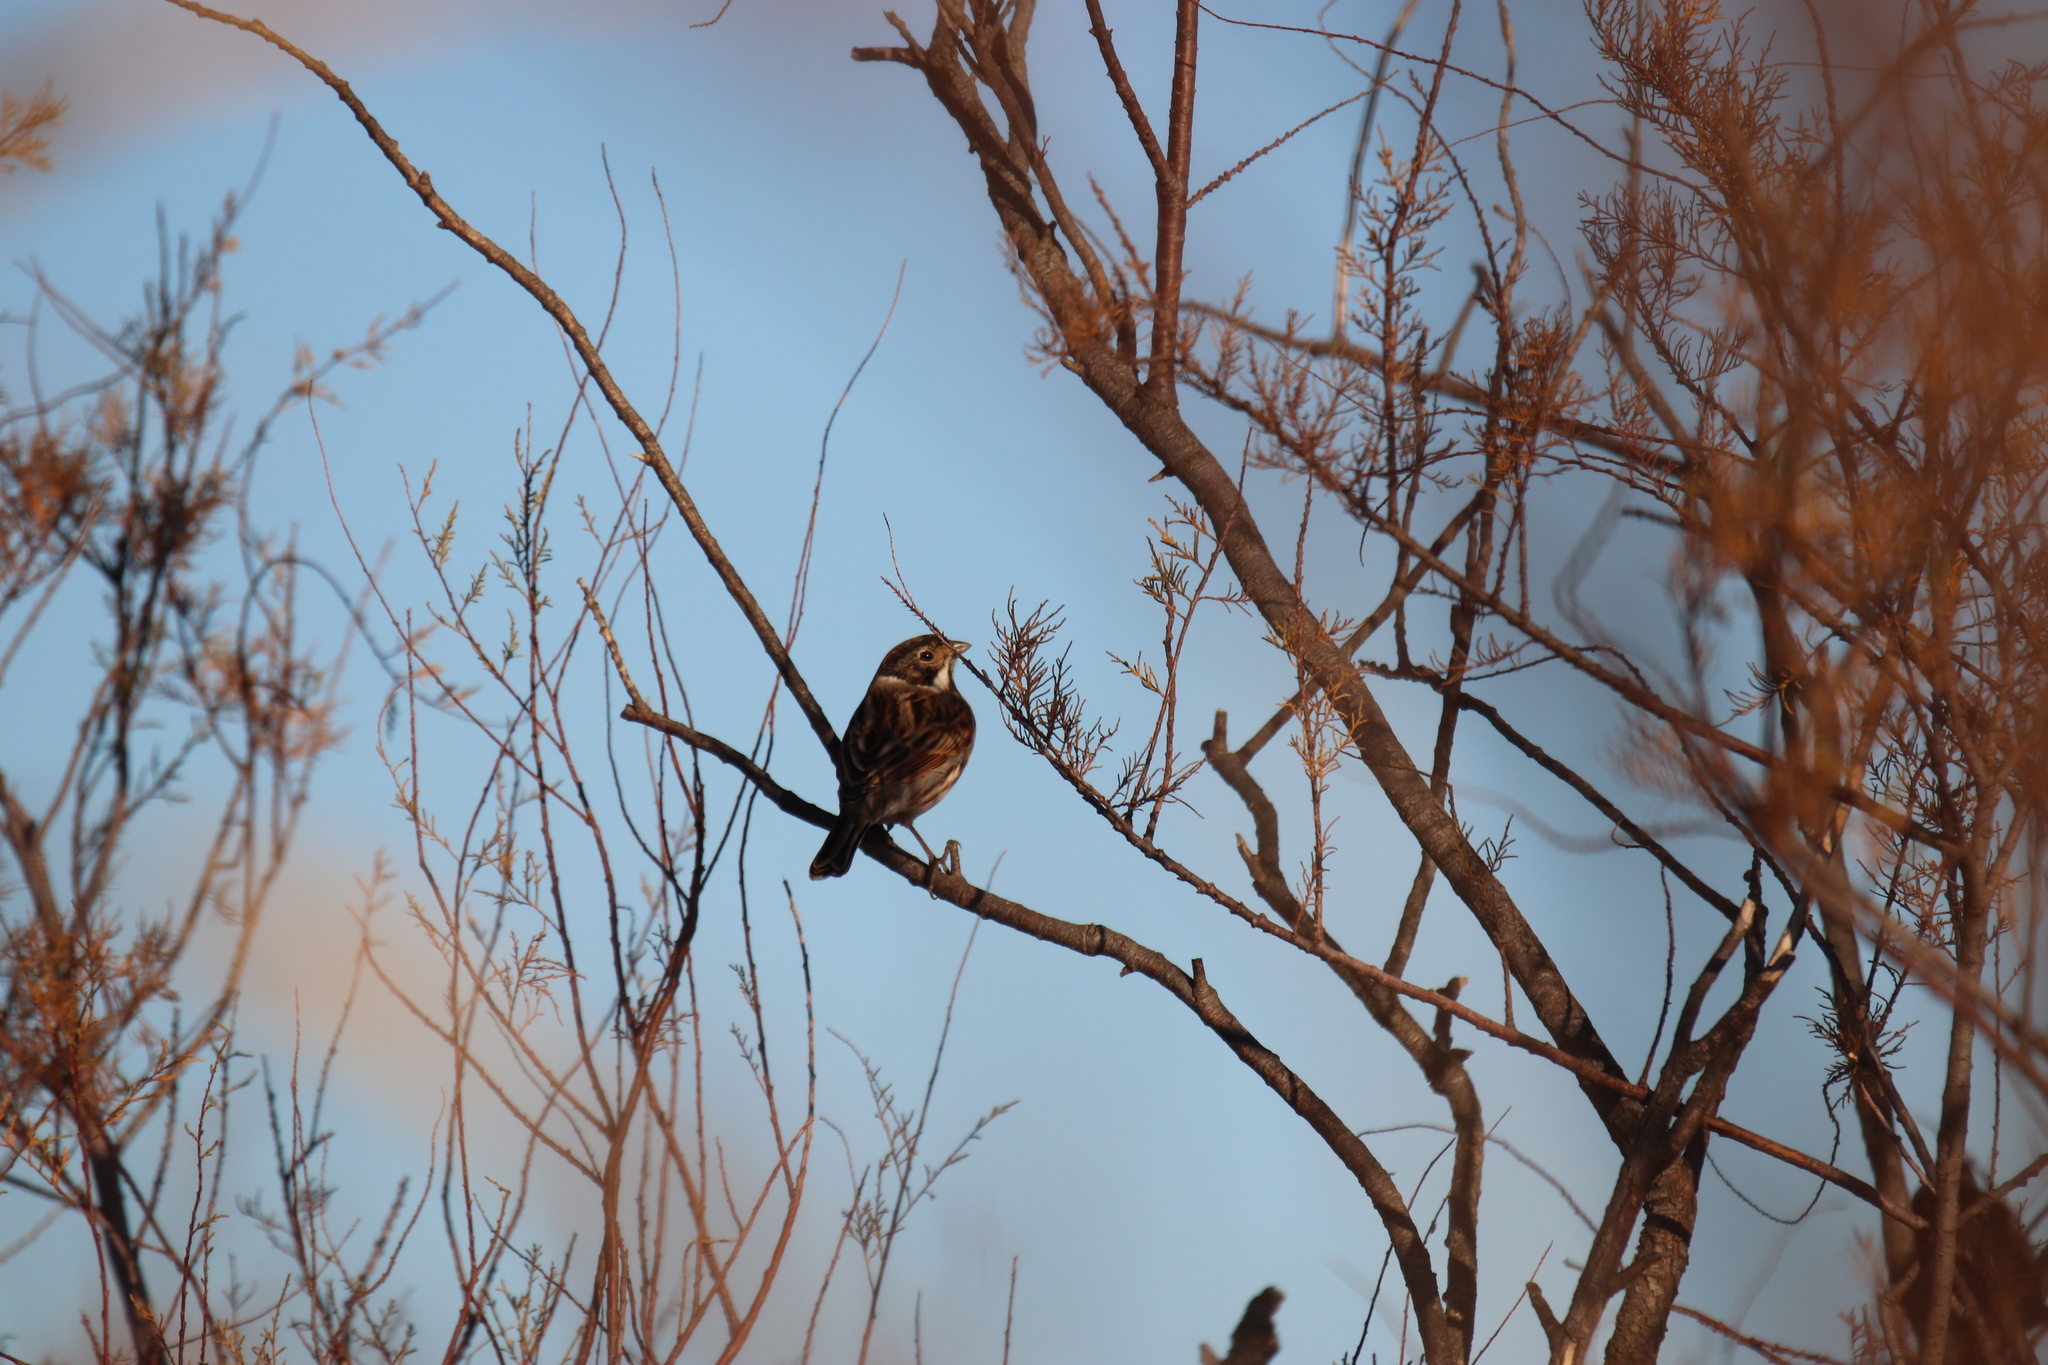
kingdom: Animalia
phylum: Chordata
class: Aves
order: Passeriformes
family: Emberizidae
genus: Emberiza
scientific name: Emberiza schoeniclus
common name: Reed bunting
